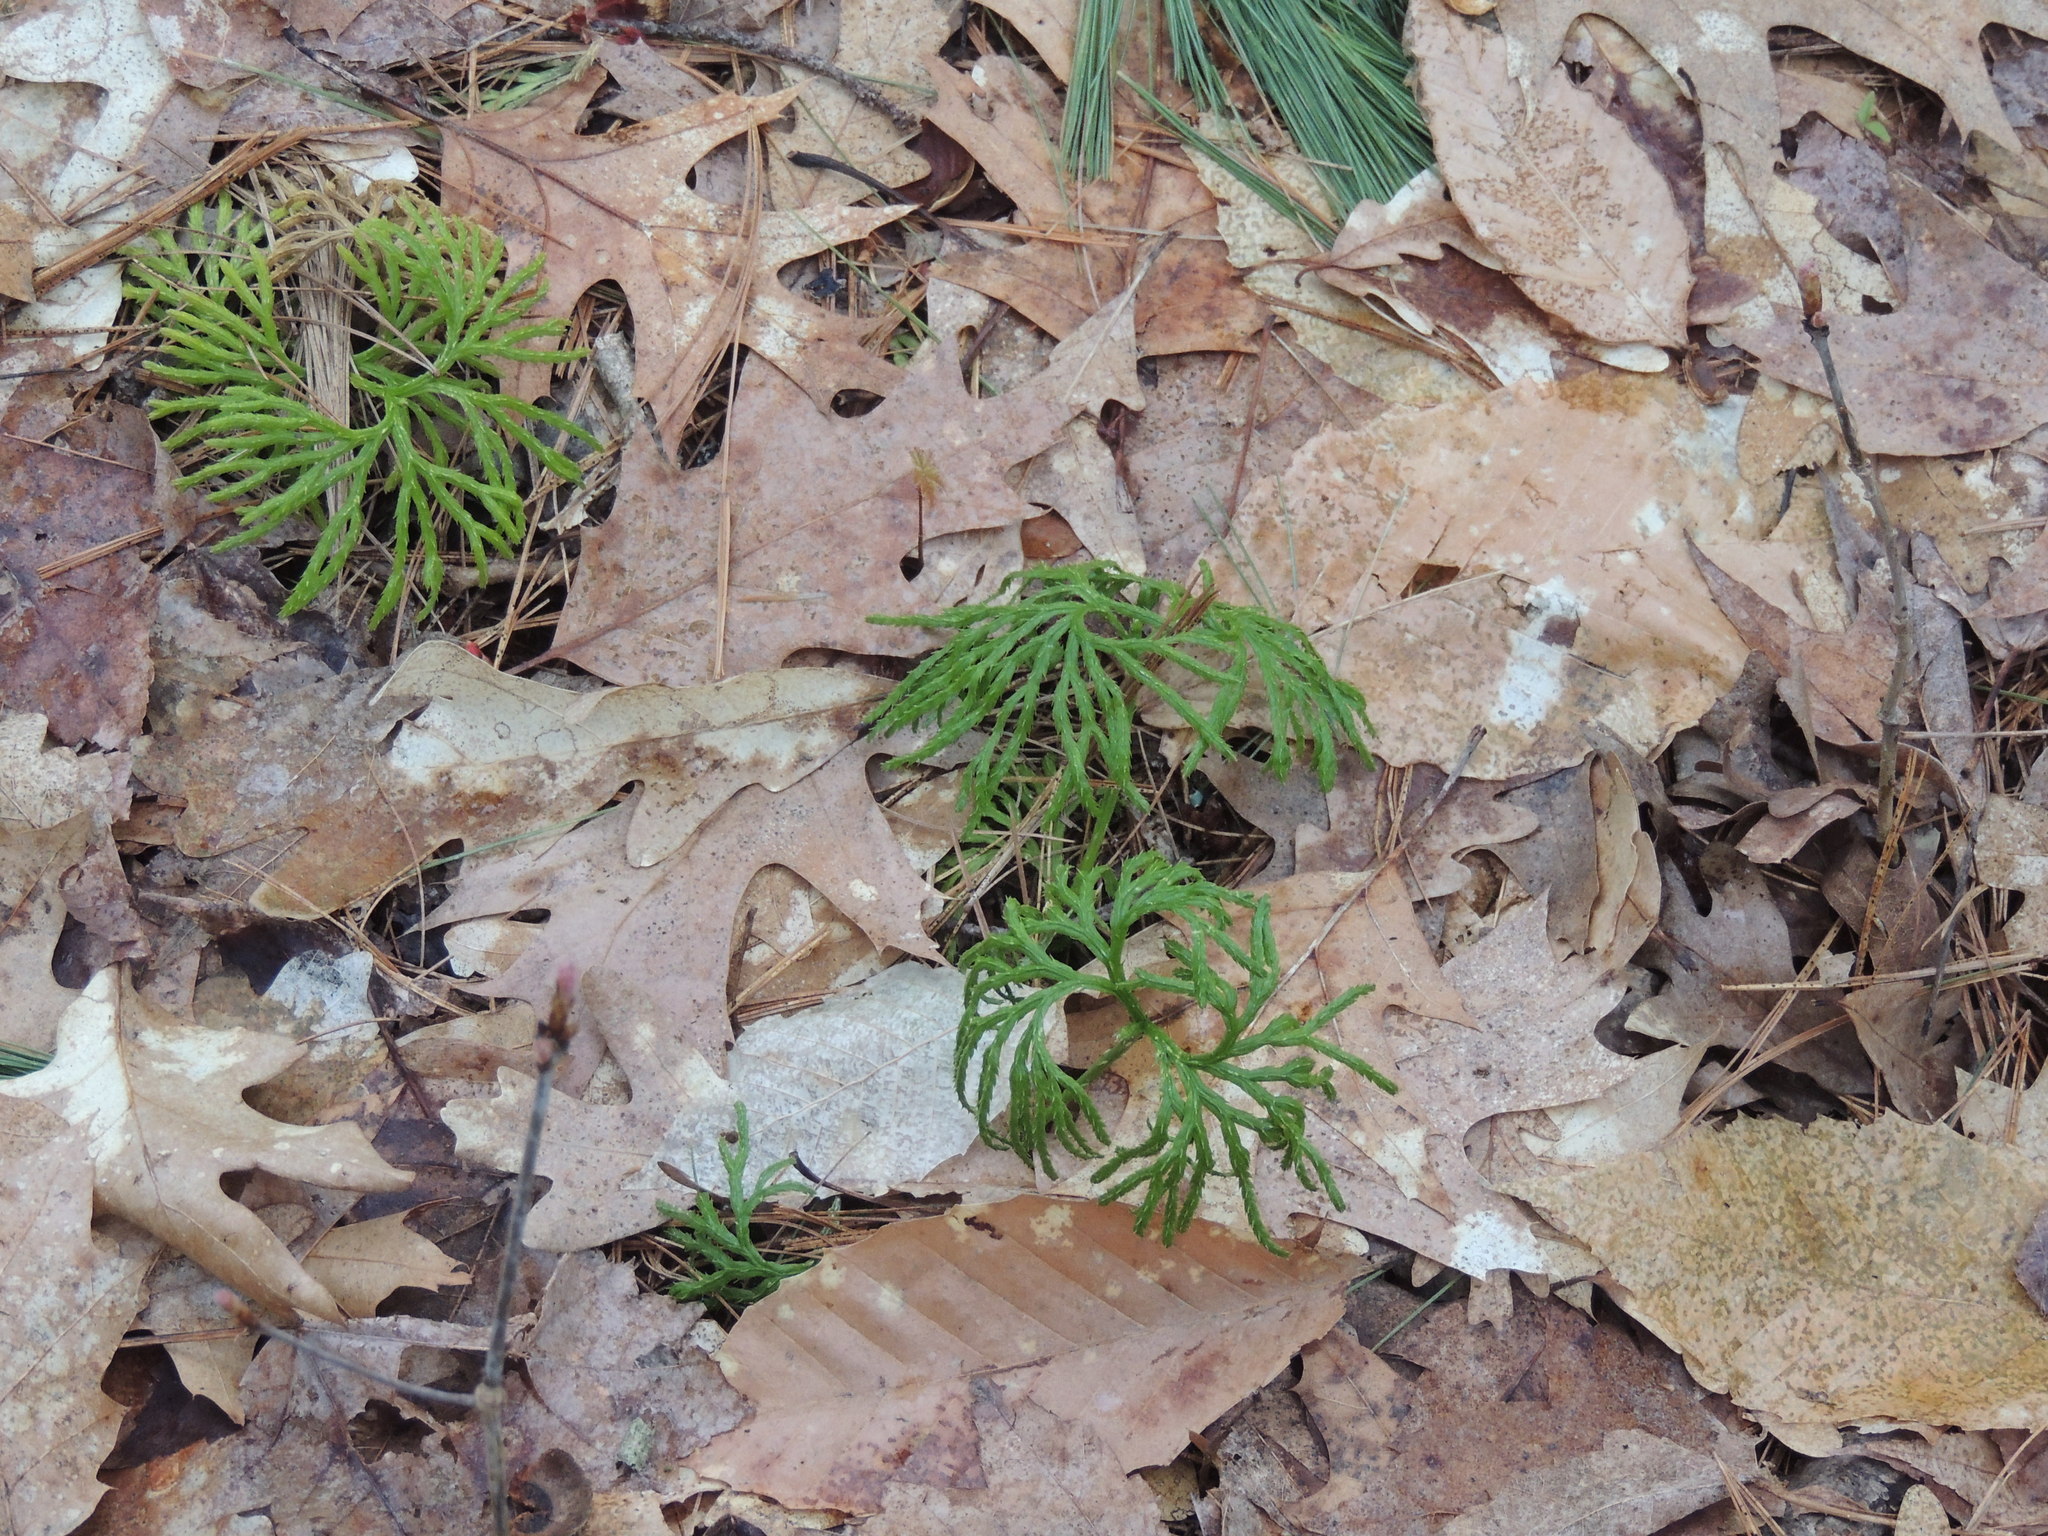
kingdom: Plantae
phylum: Tracheophyta
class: Lycopodiopsida
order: Lycopodiales
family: Lycopodiaceae
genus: Diphasiastrum
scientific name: Diphasiastrum digitatum
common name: Southern running-pine
